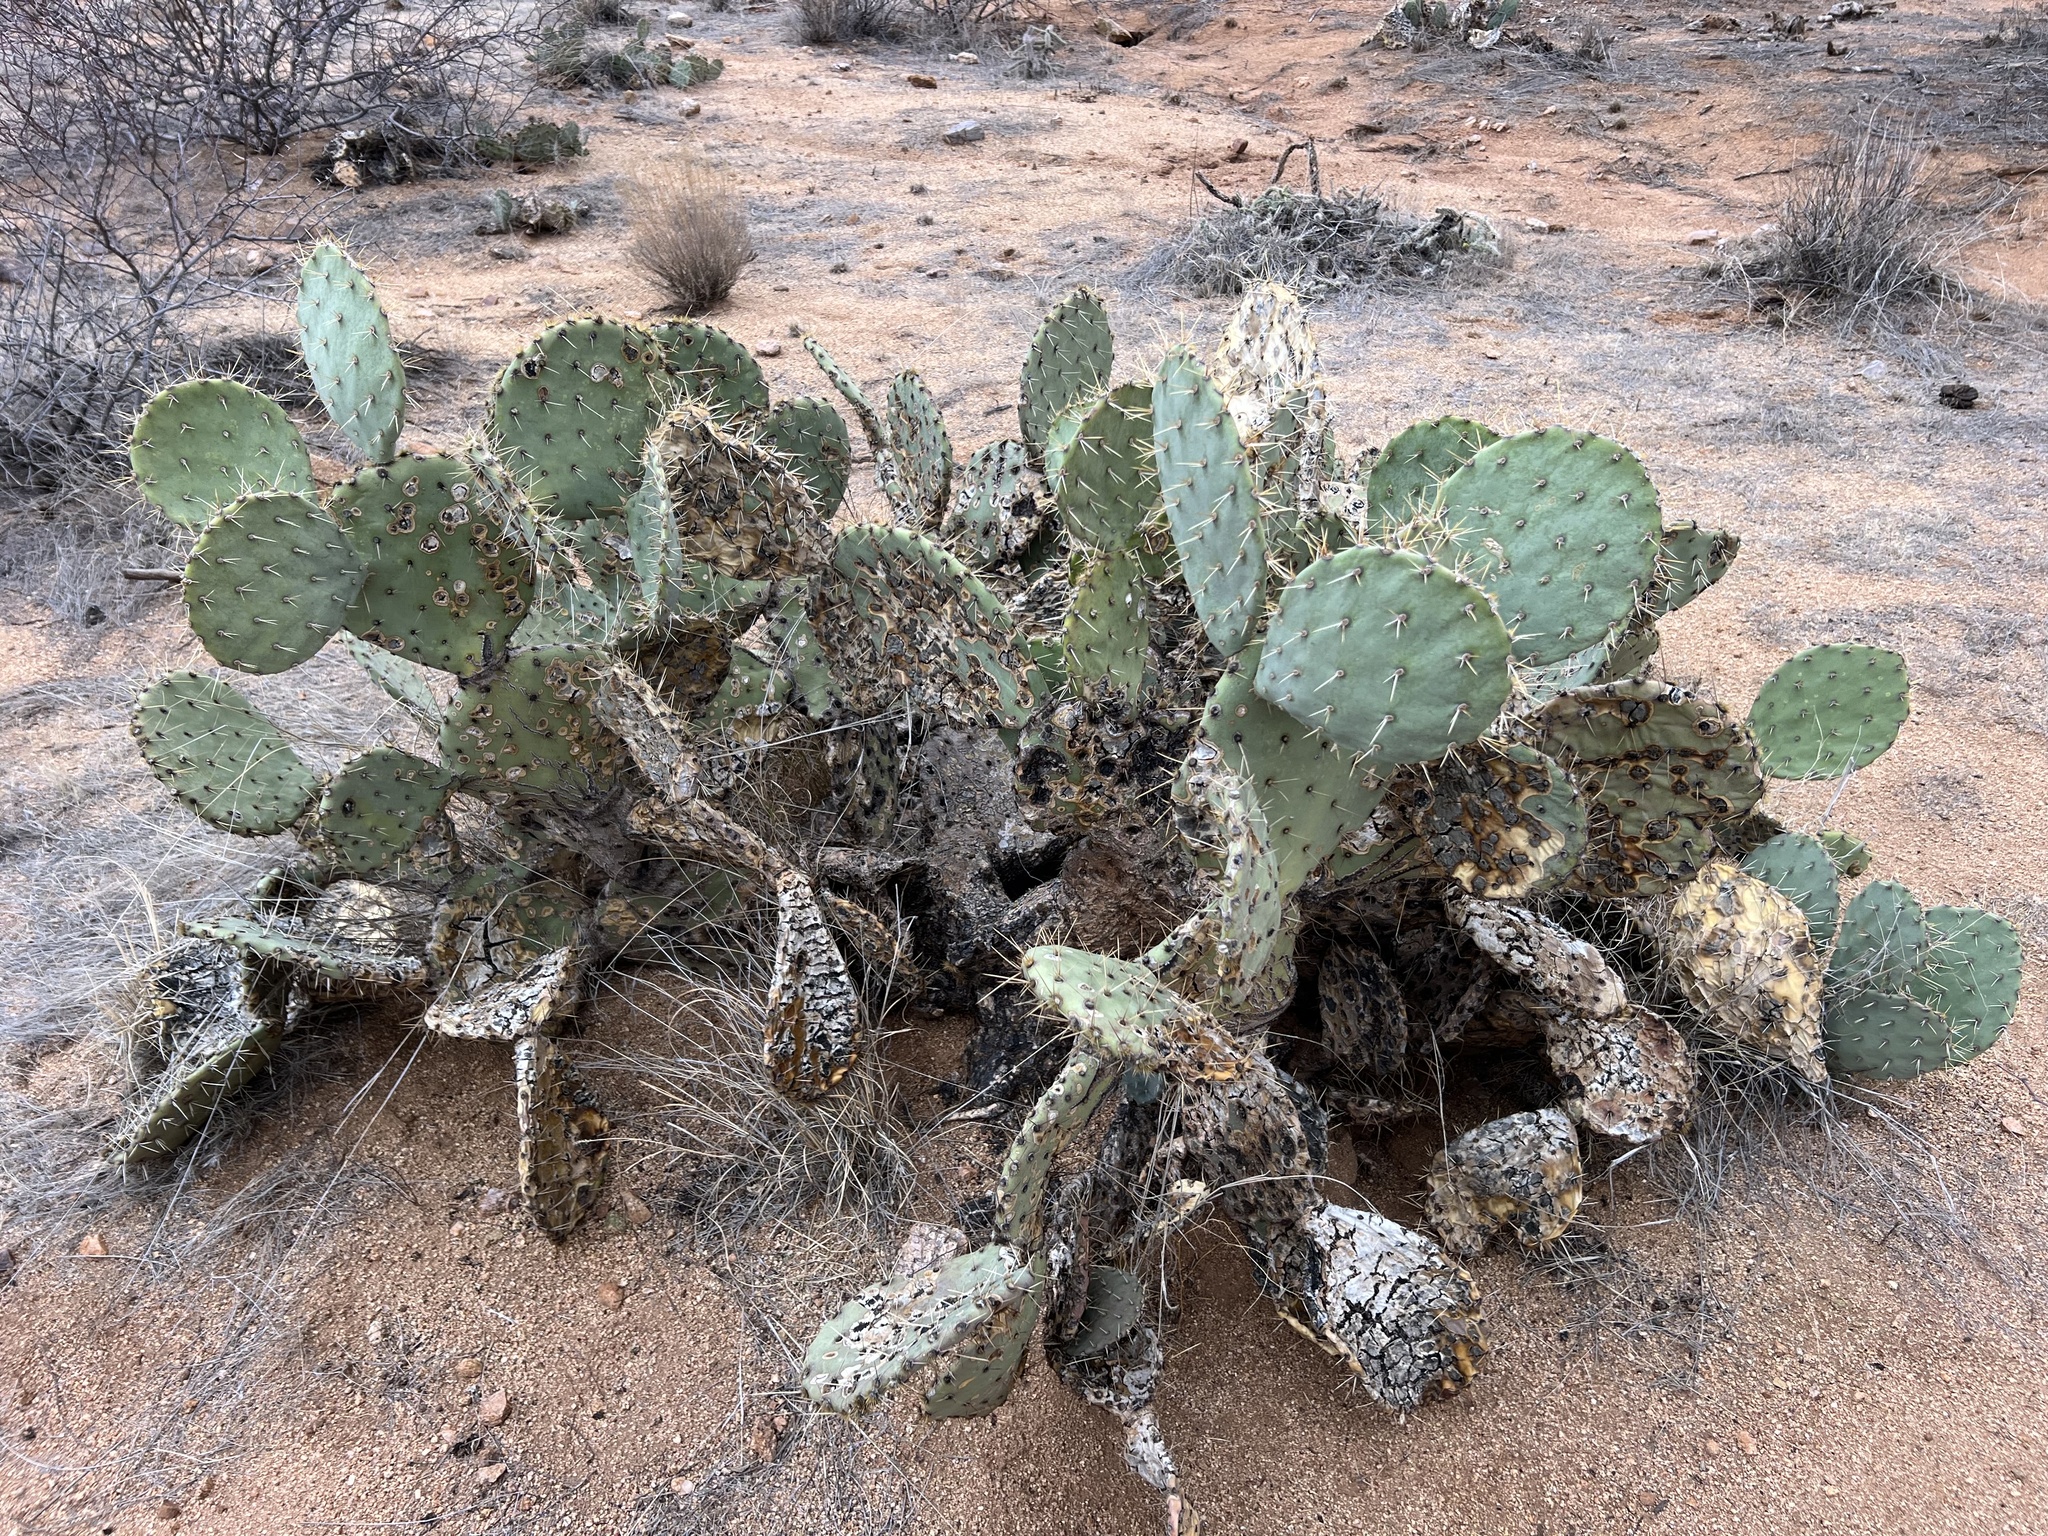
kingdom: Plantae
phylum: Tracheophyta
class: Magnoliopsida
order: Caryophyllales
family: Cactaceae
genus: Opuntia
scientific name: Opuntia engelmannii
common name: Cactus-apple
